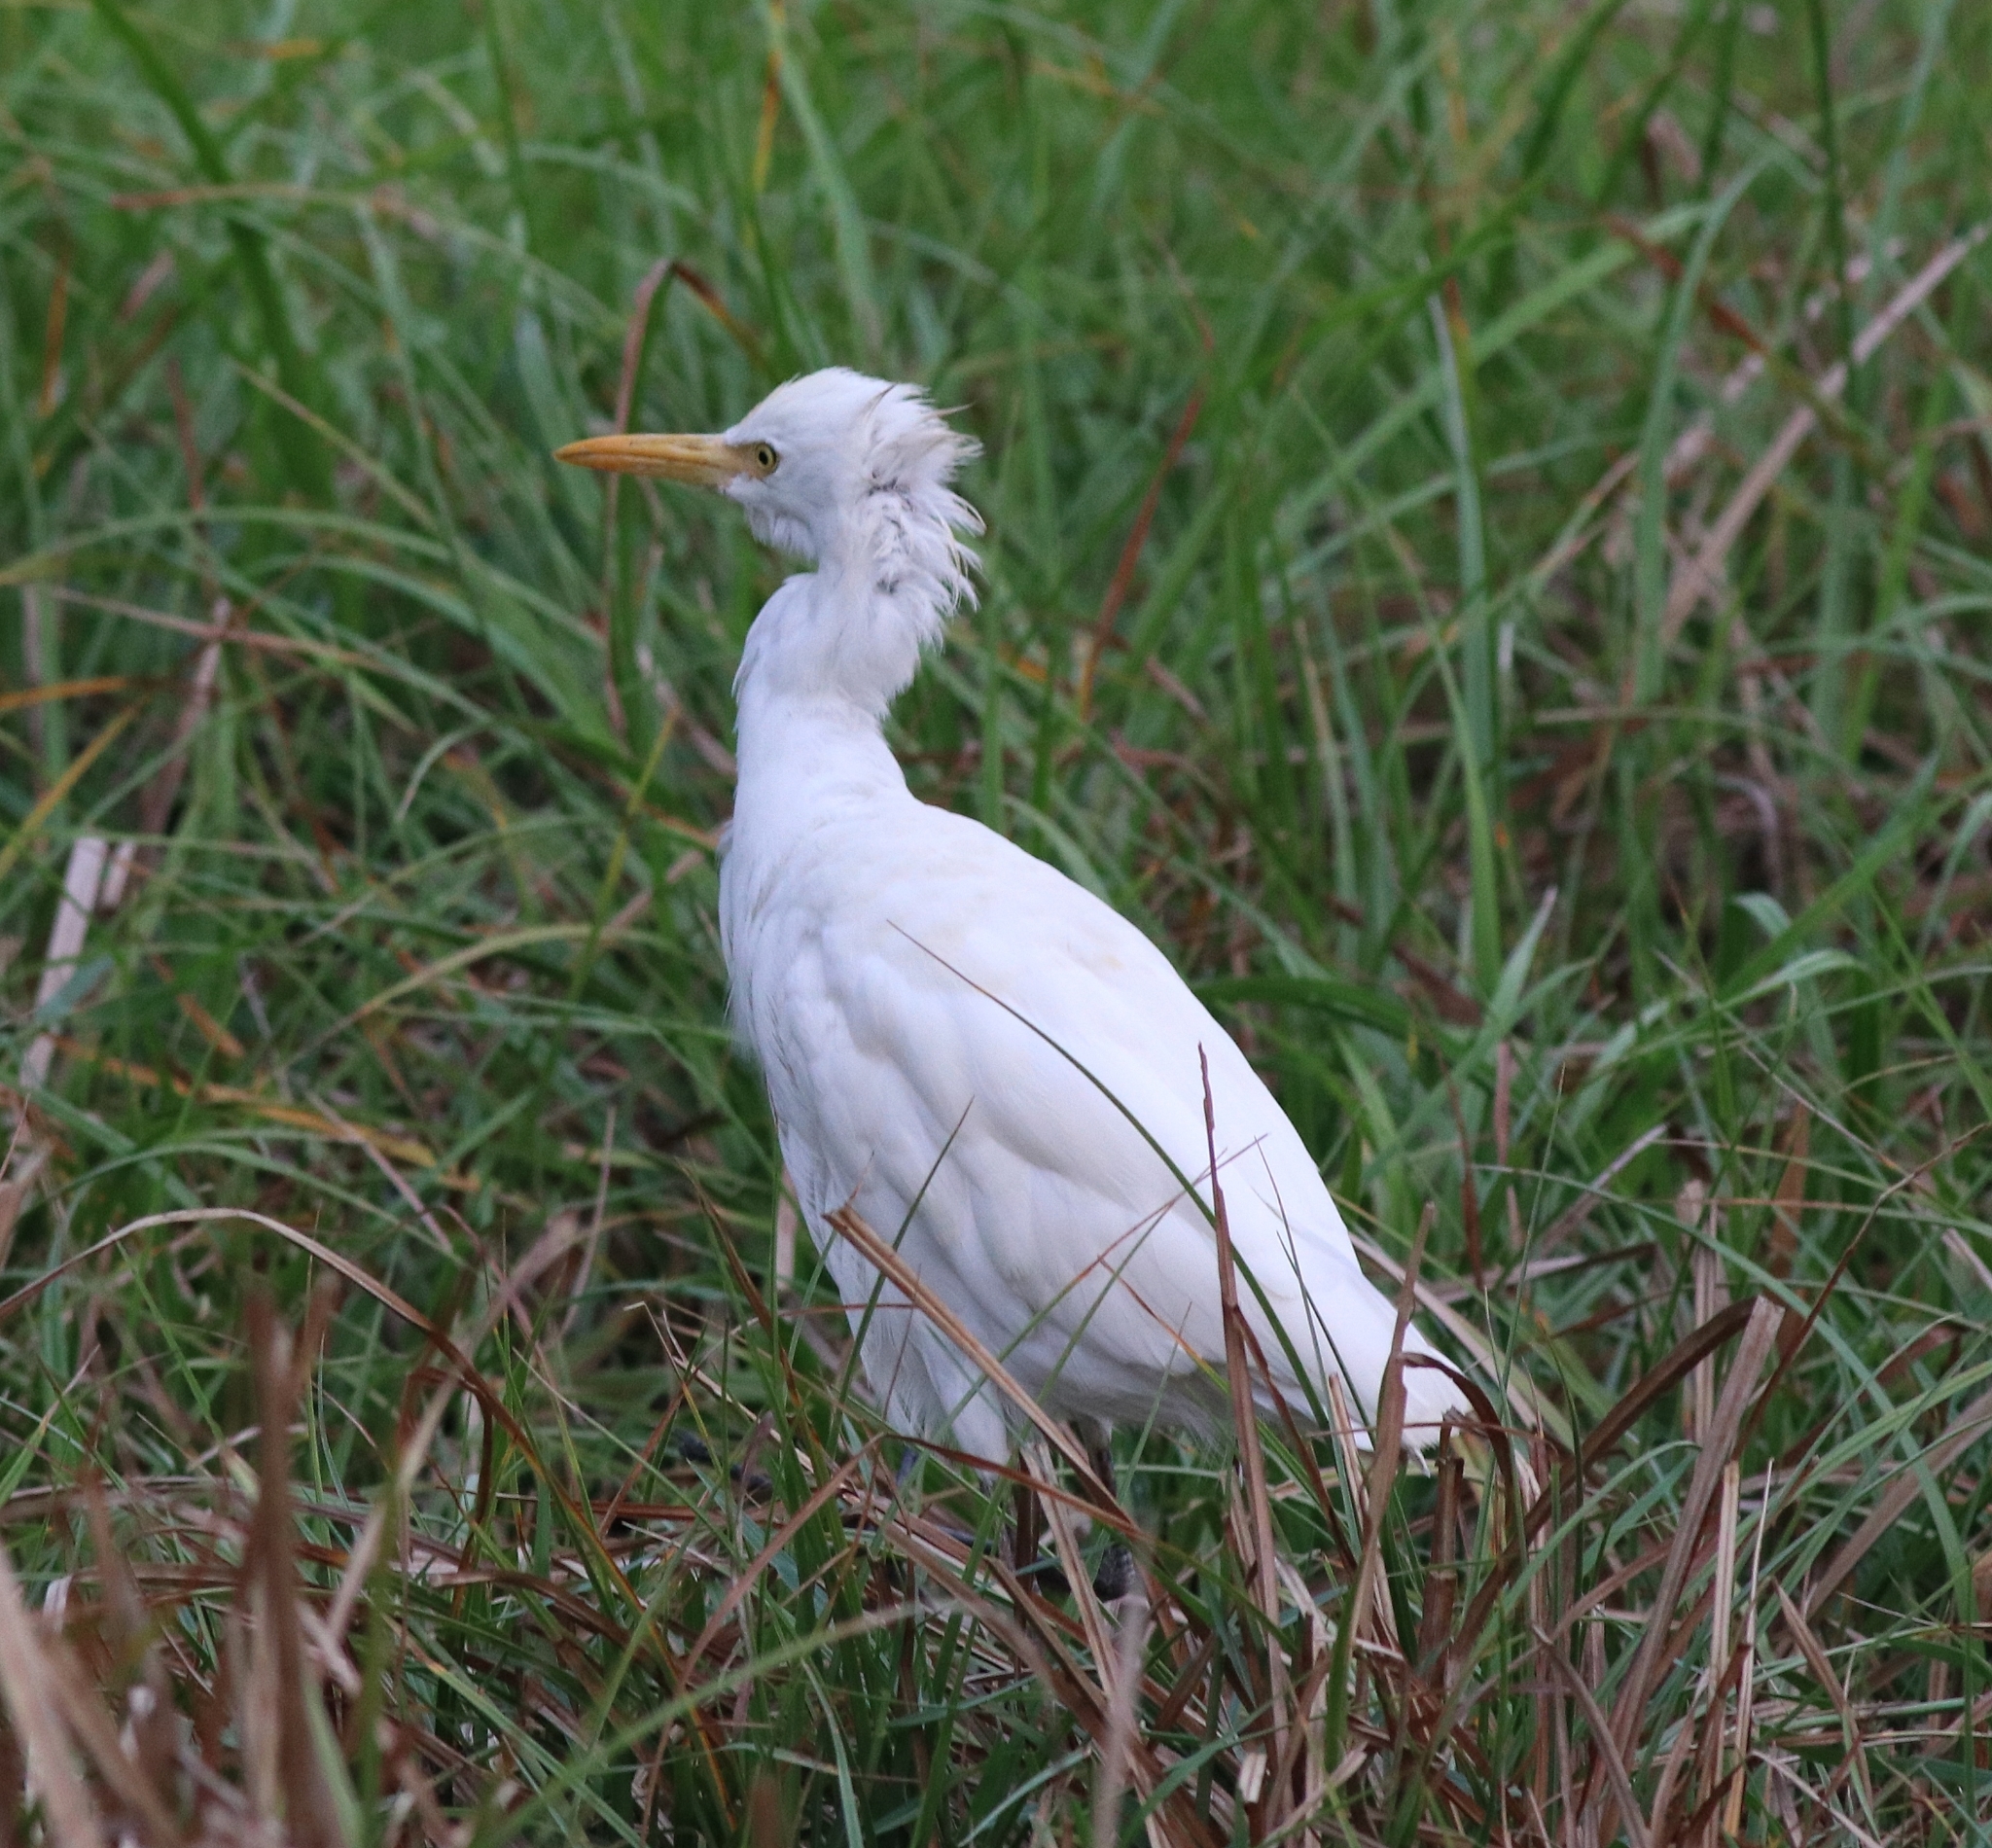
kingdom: Animalia
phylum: Chordata
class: Aves
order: Pelecaniformes
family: Ardeidae
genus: Bubulcus
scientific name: Bubulcus coromandus
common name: Eastern cattle egret
